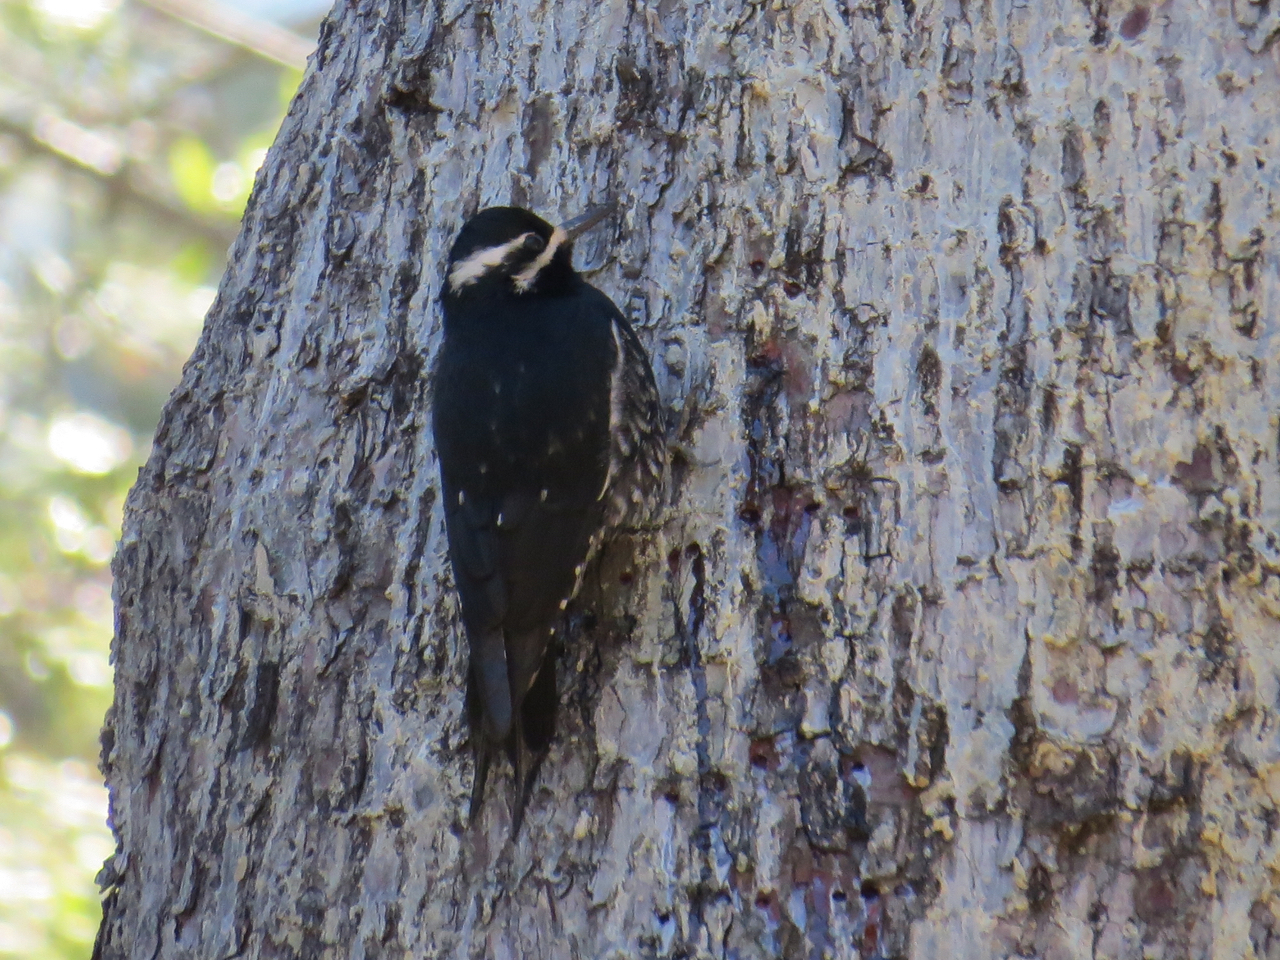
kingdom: Animalia
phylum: Chordata
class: Aves
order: Piciformes
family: Picidae
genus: Sphyrapicus
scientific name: Sphyrapicus thyroideus
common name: Williamson's sapsucker
